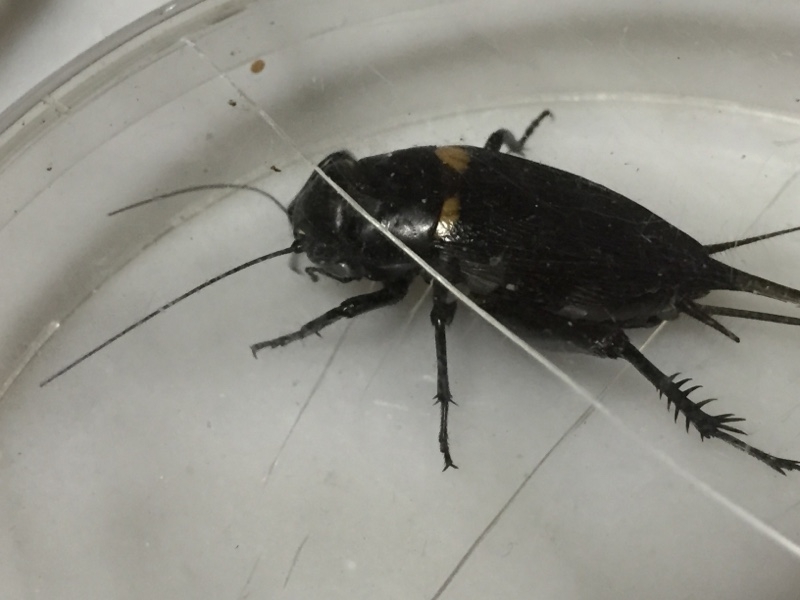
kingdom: Animalia
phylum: Arthropoda
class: Insecta
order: Orthoptera
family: Gryllidae
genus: Gryllus
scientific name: Gryllus bimaculatus
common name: Two-spotted cricket
